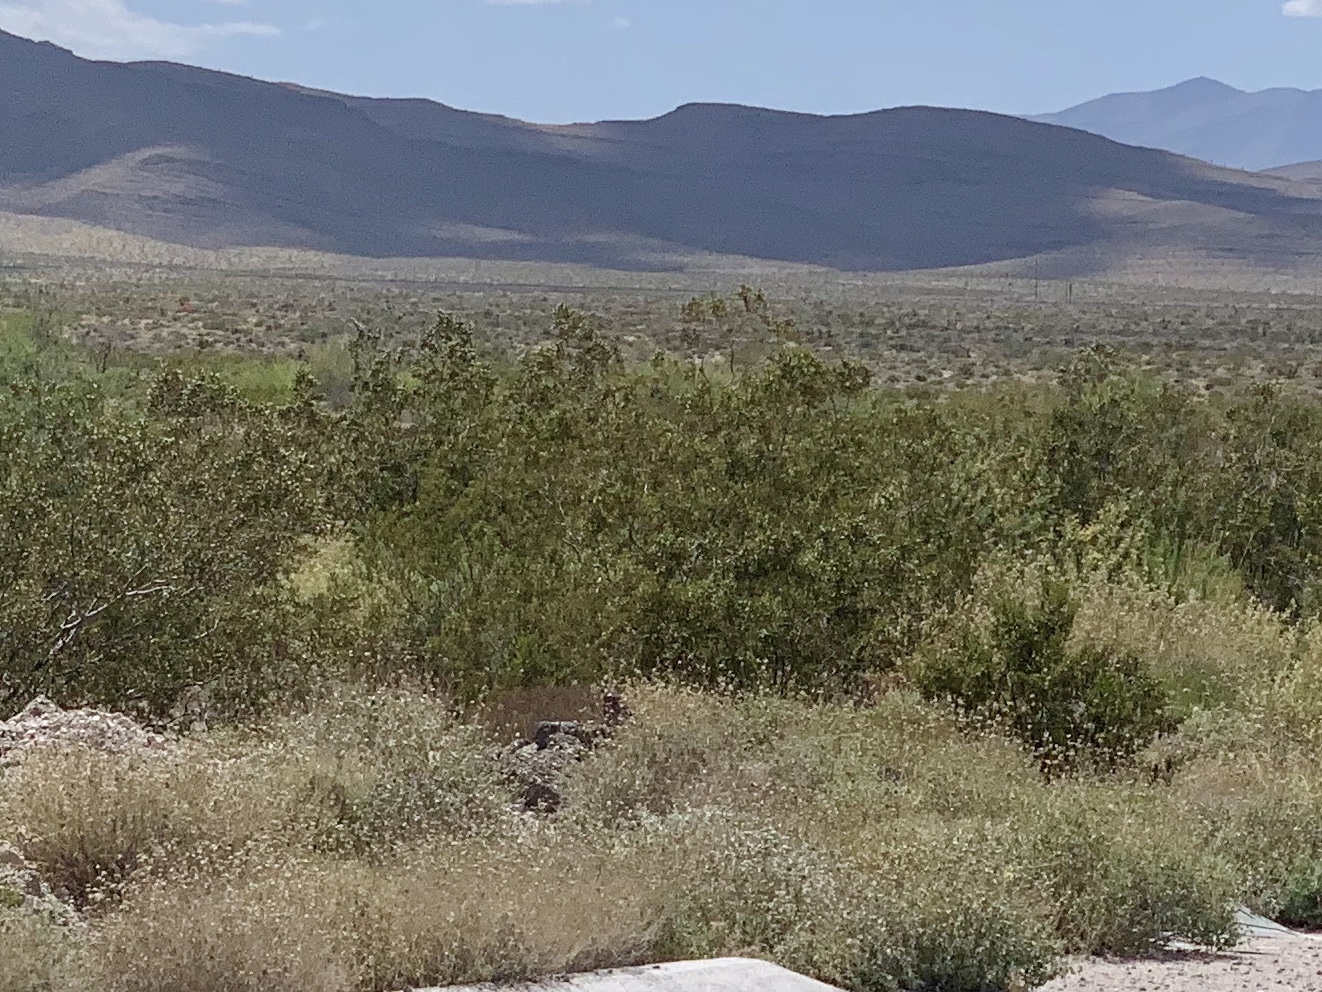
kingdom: Plantae
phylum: Tracheophyta
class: Magnoliopsida
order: Zygophyllales
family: Zygophyllaceae
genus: Larrea
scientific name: Larrea tridentata
